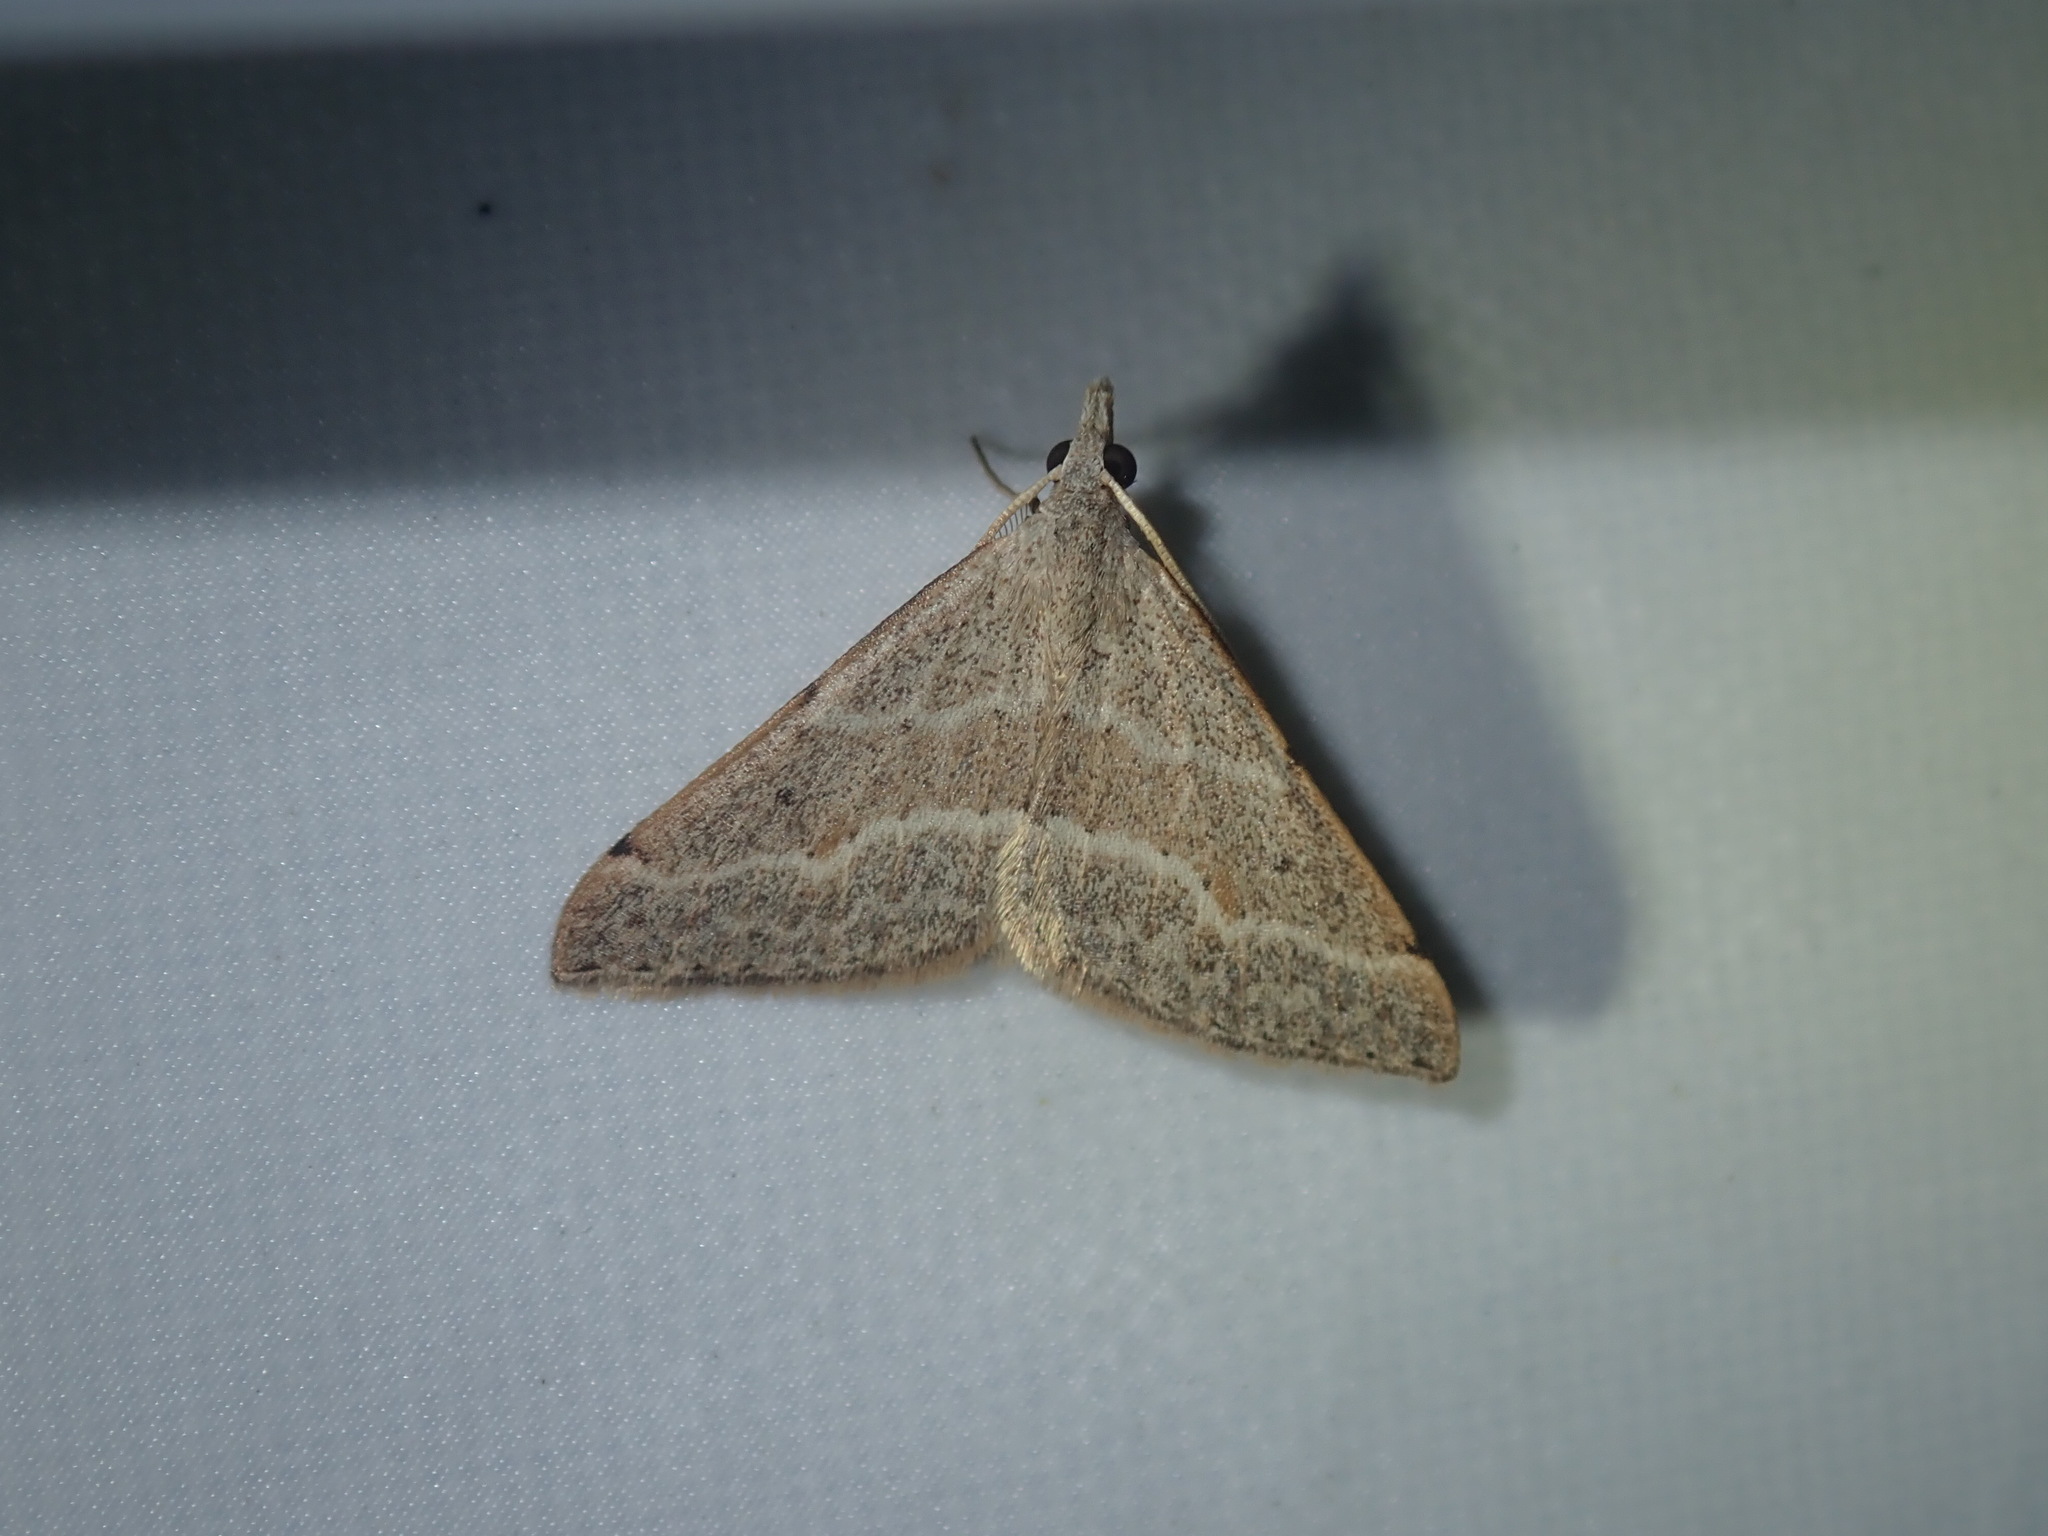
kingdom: Animalia
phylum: Arthropoda
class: Insecta
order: Lepidoptera
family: Geometridae
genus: Dichromodes
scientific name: Dichromodes limosa
